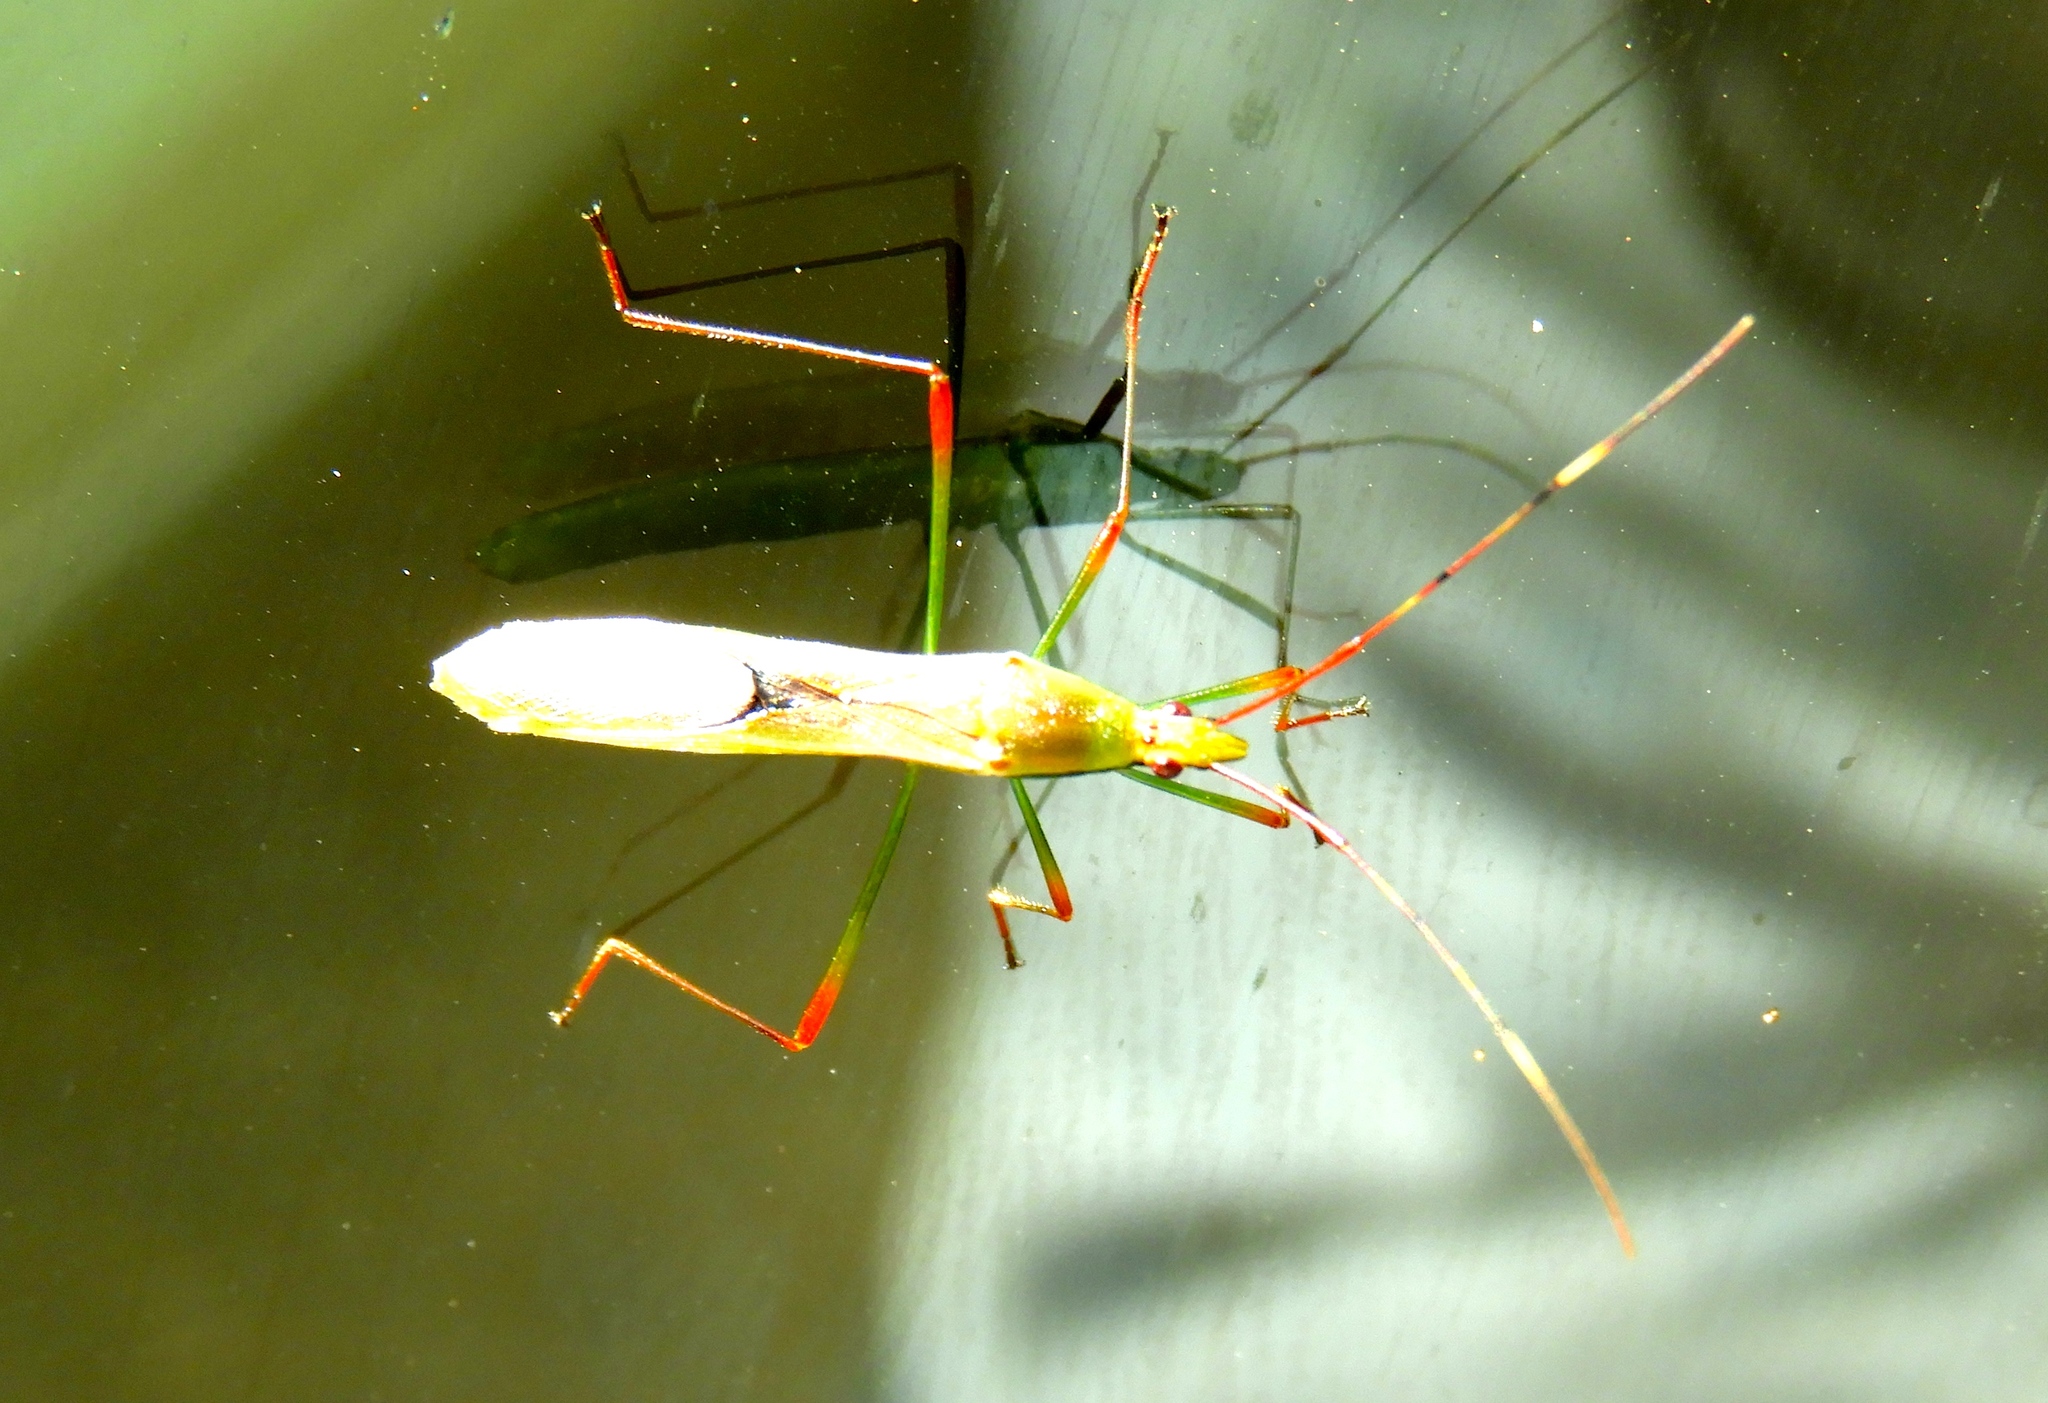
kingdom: Animalia
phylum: Arthropoda
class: Insecta
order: Hemiptera
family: Alydidae
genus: Stenocoris
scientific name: Stenocoris
